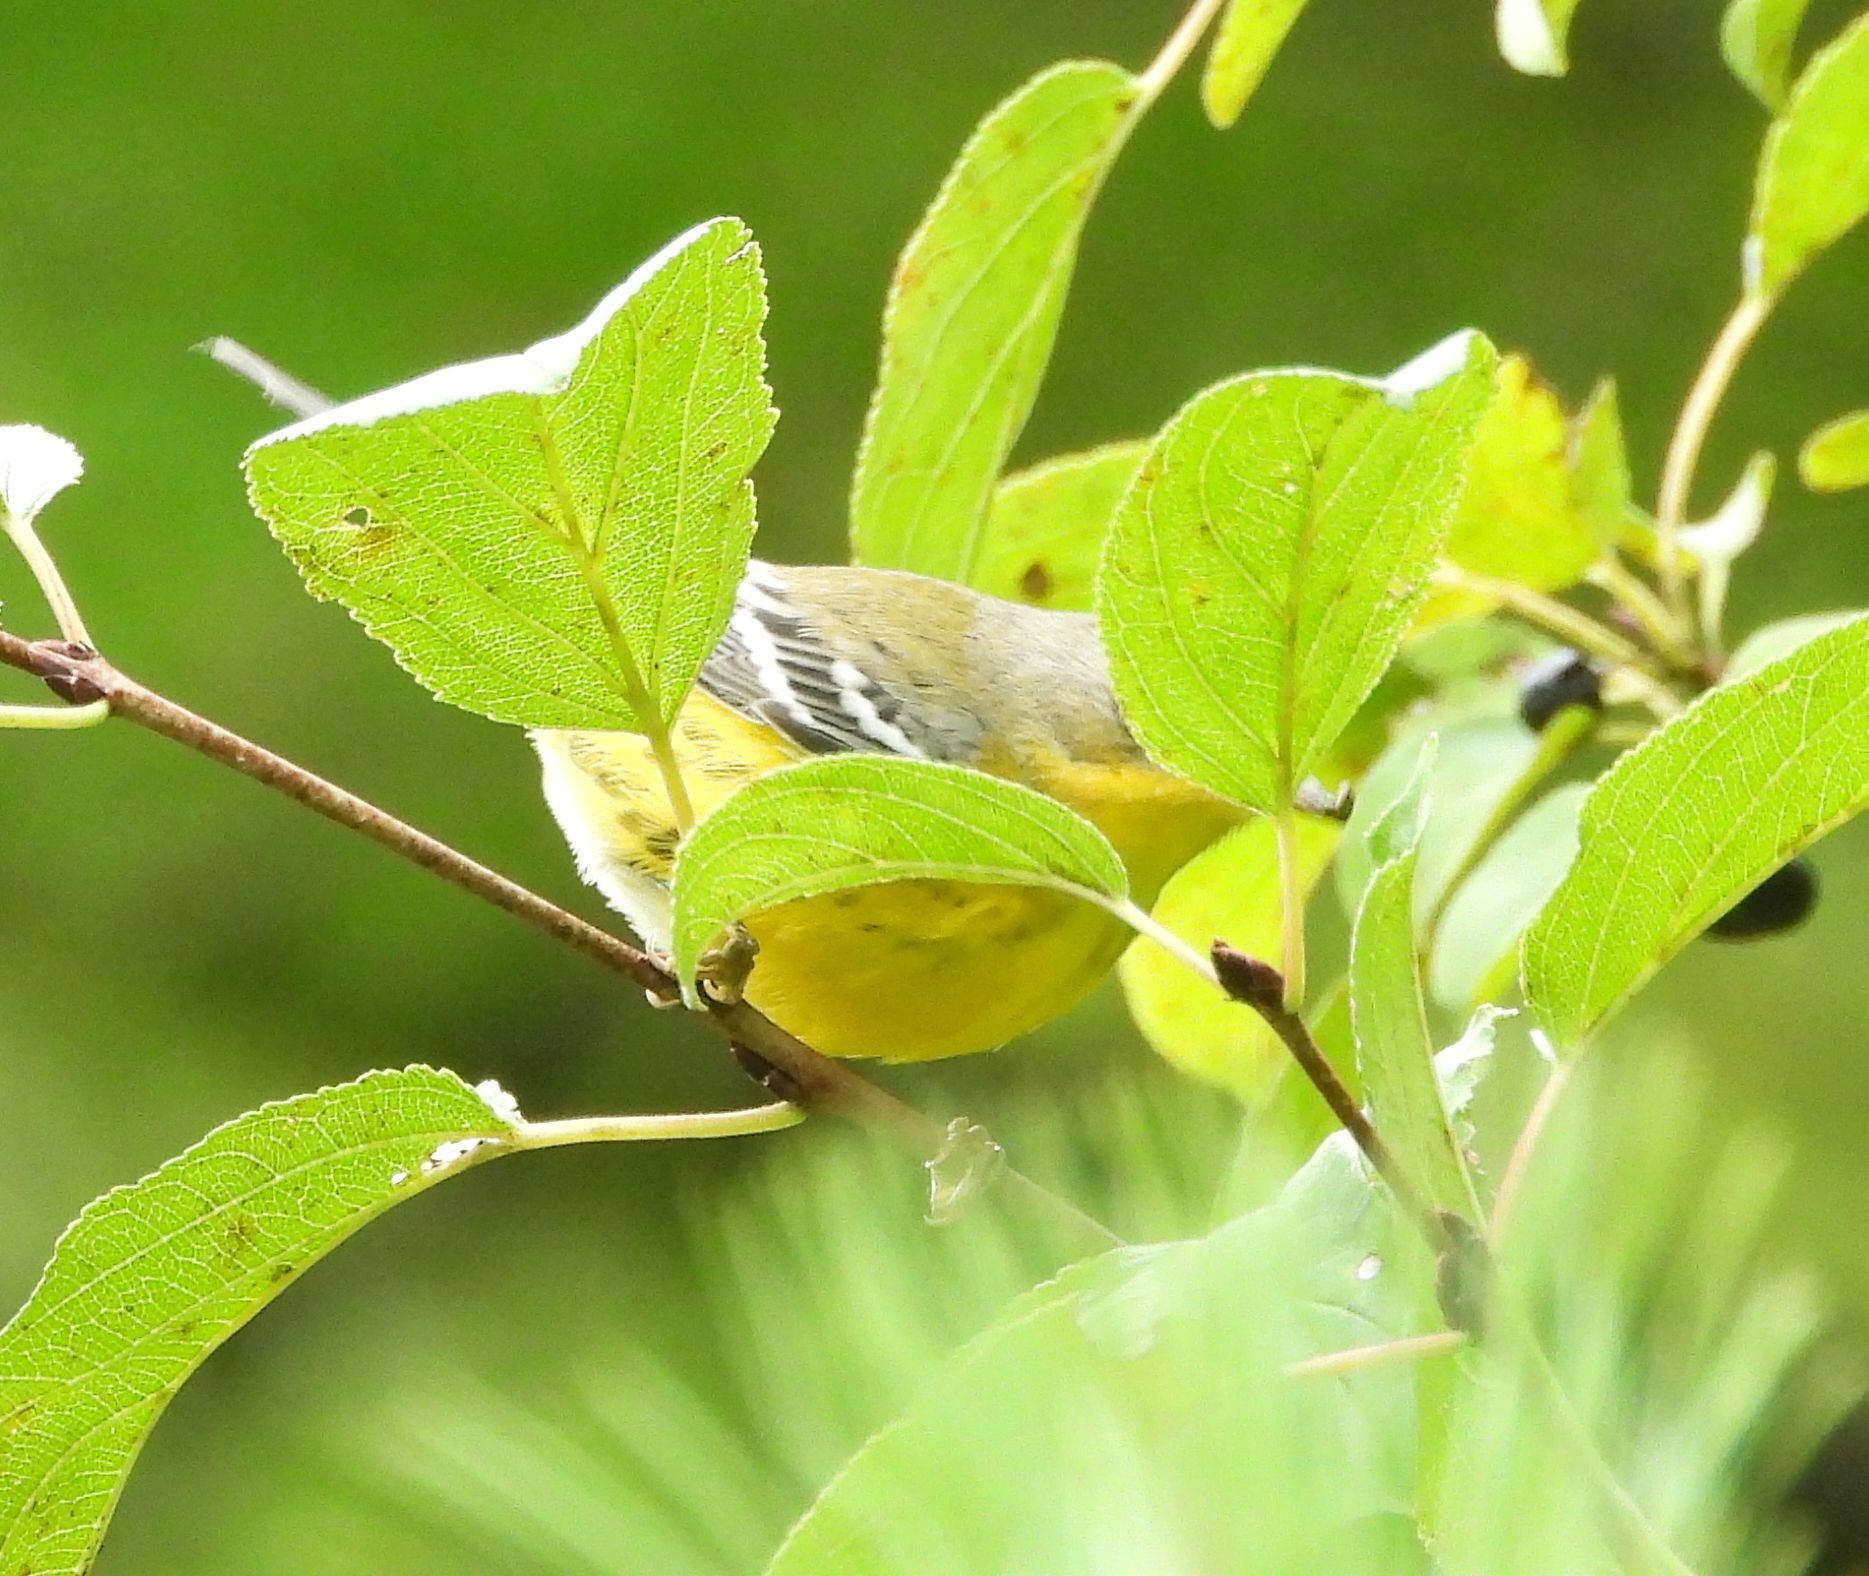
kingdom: Animalia
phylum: Chordata
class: Aves
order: Passeriformes
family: Parulidae
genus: Setophaga
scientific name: Setophaga magnolia
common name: Magnolia warbler
